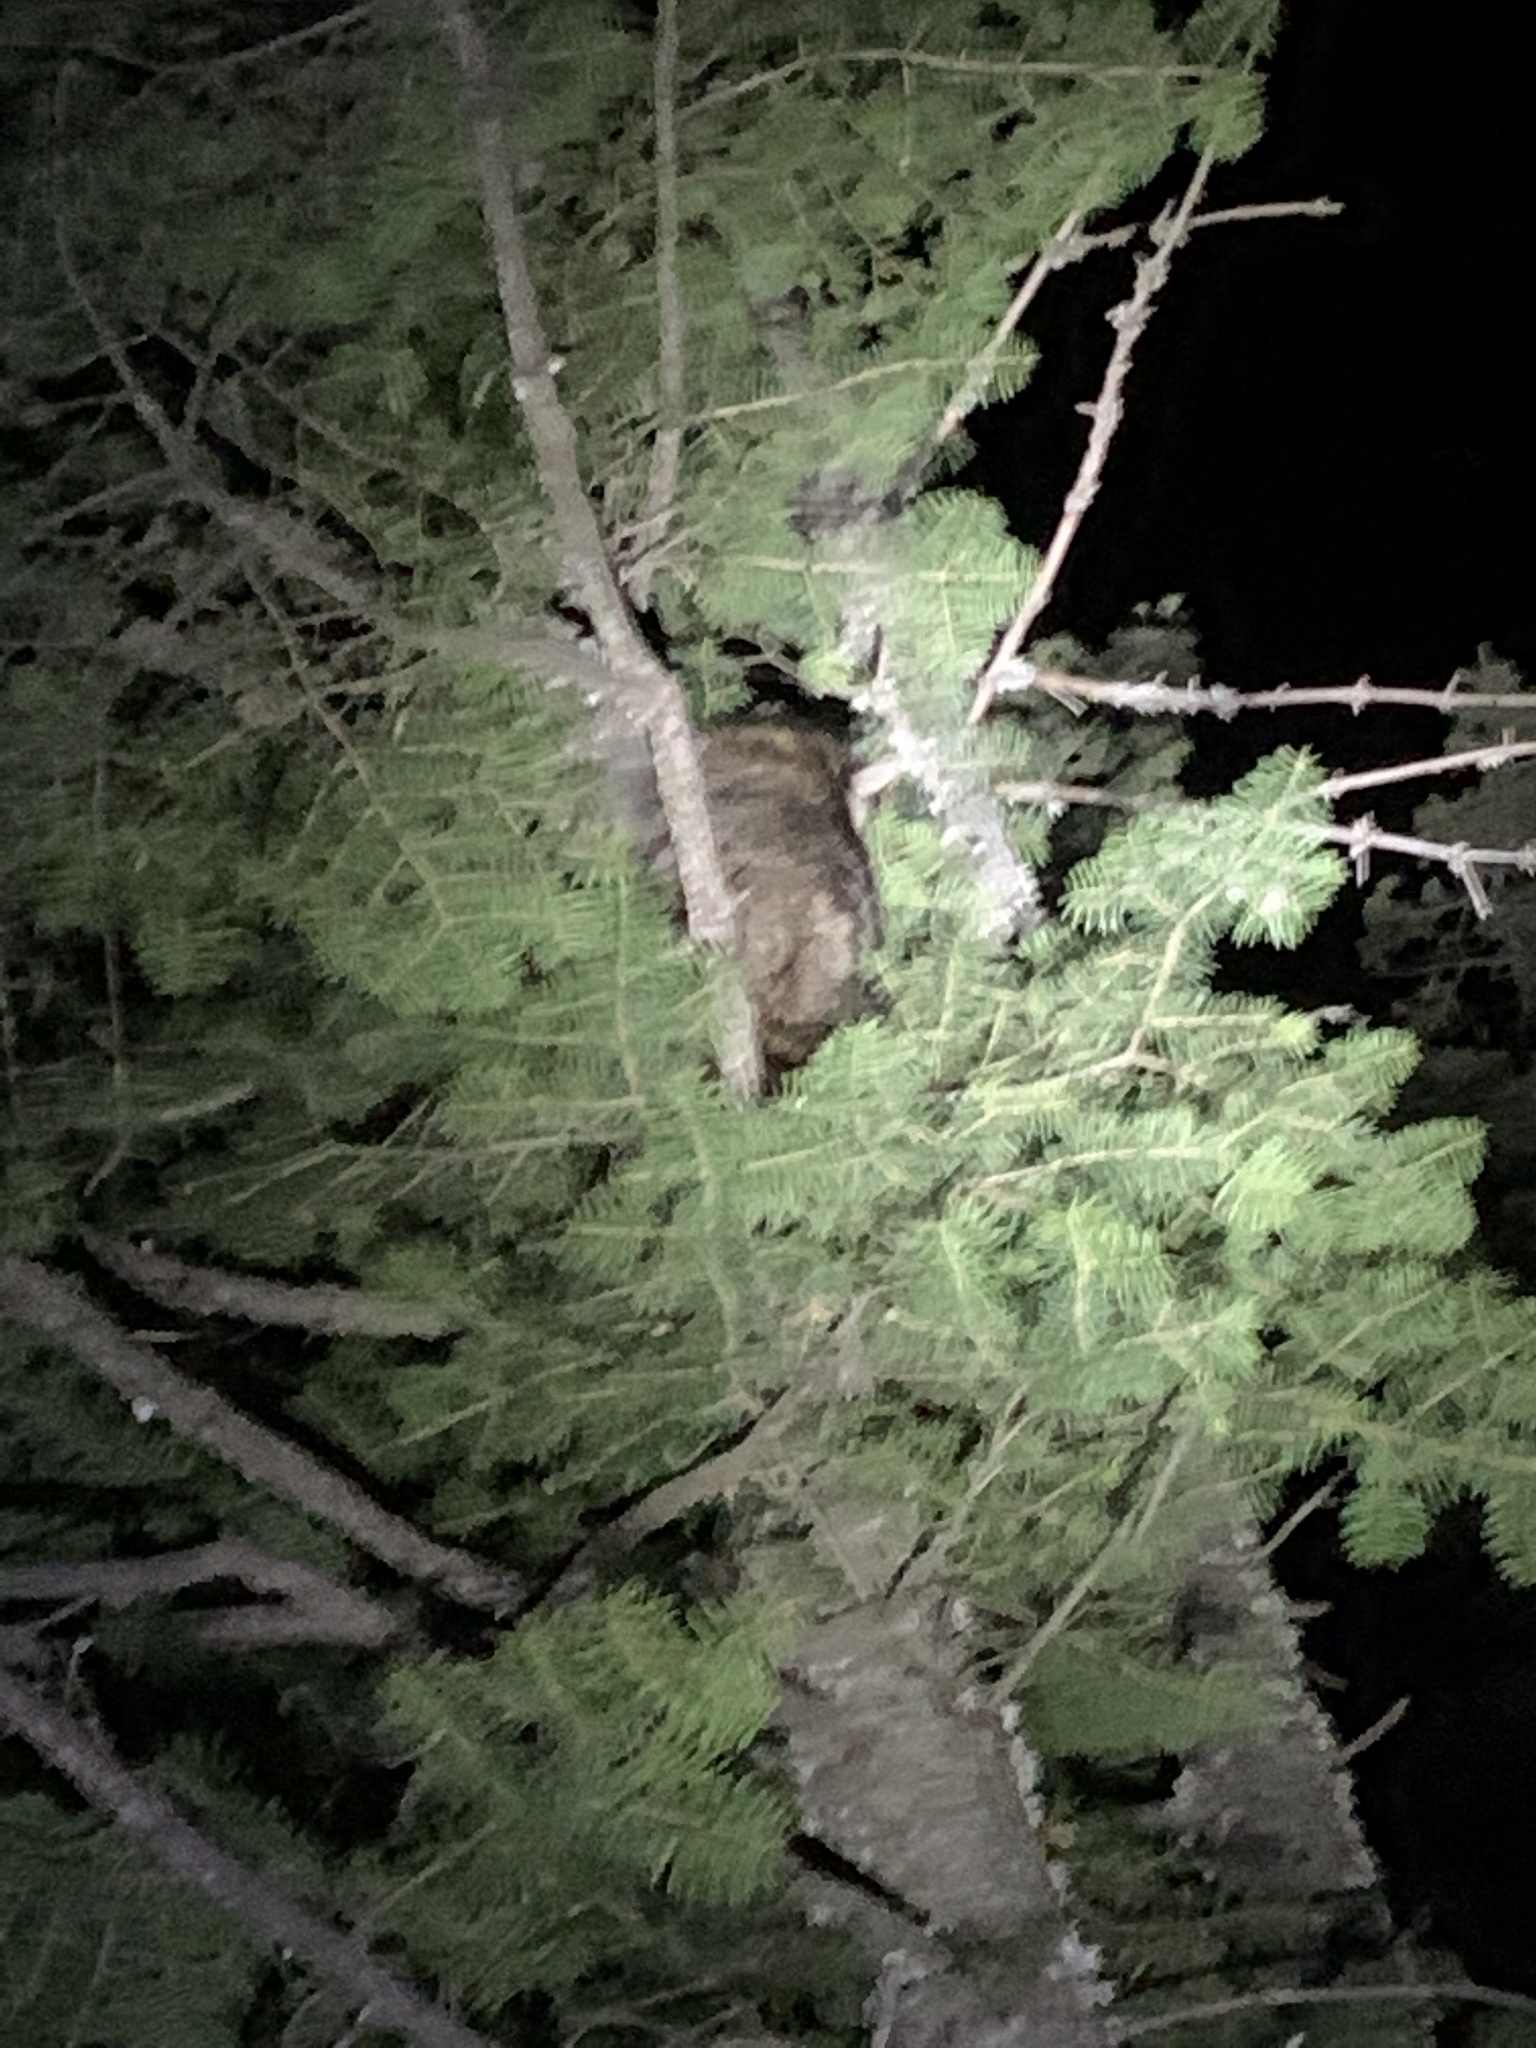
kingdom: Animalia
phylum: Chordata
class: Mammalia
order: Carnivora
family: Procyonidae
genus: Procyon
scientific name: Procyon lotor
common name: Raccoon
